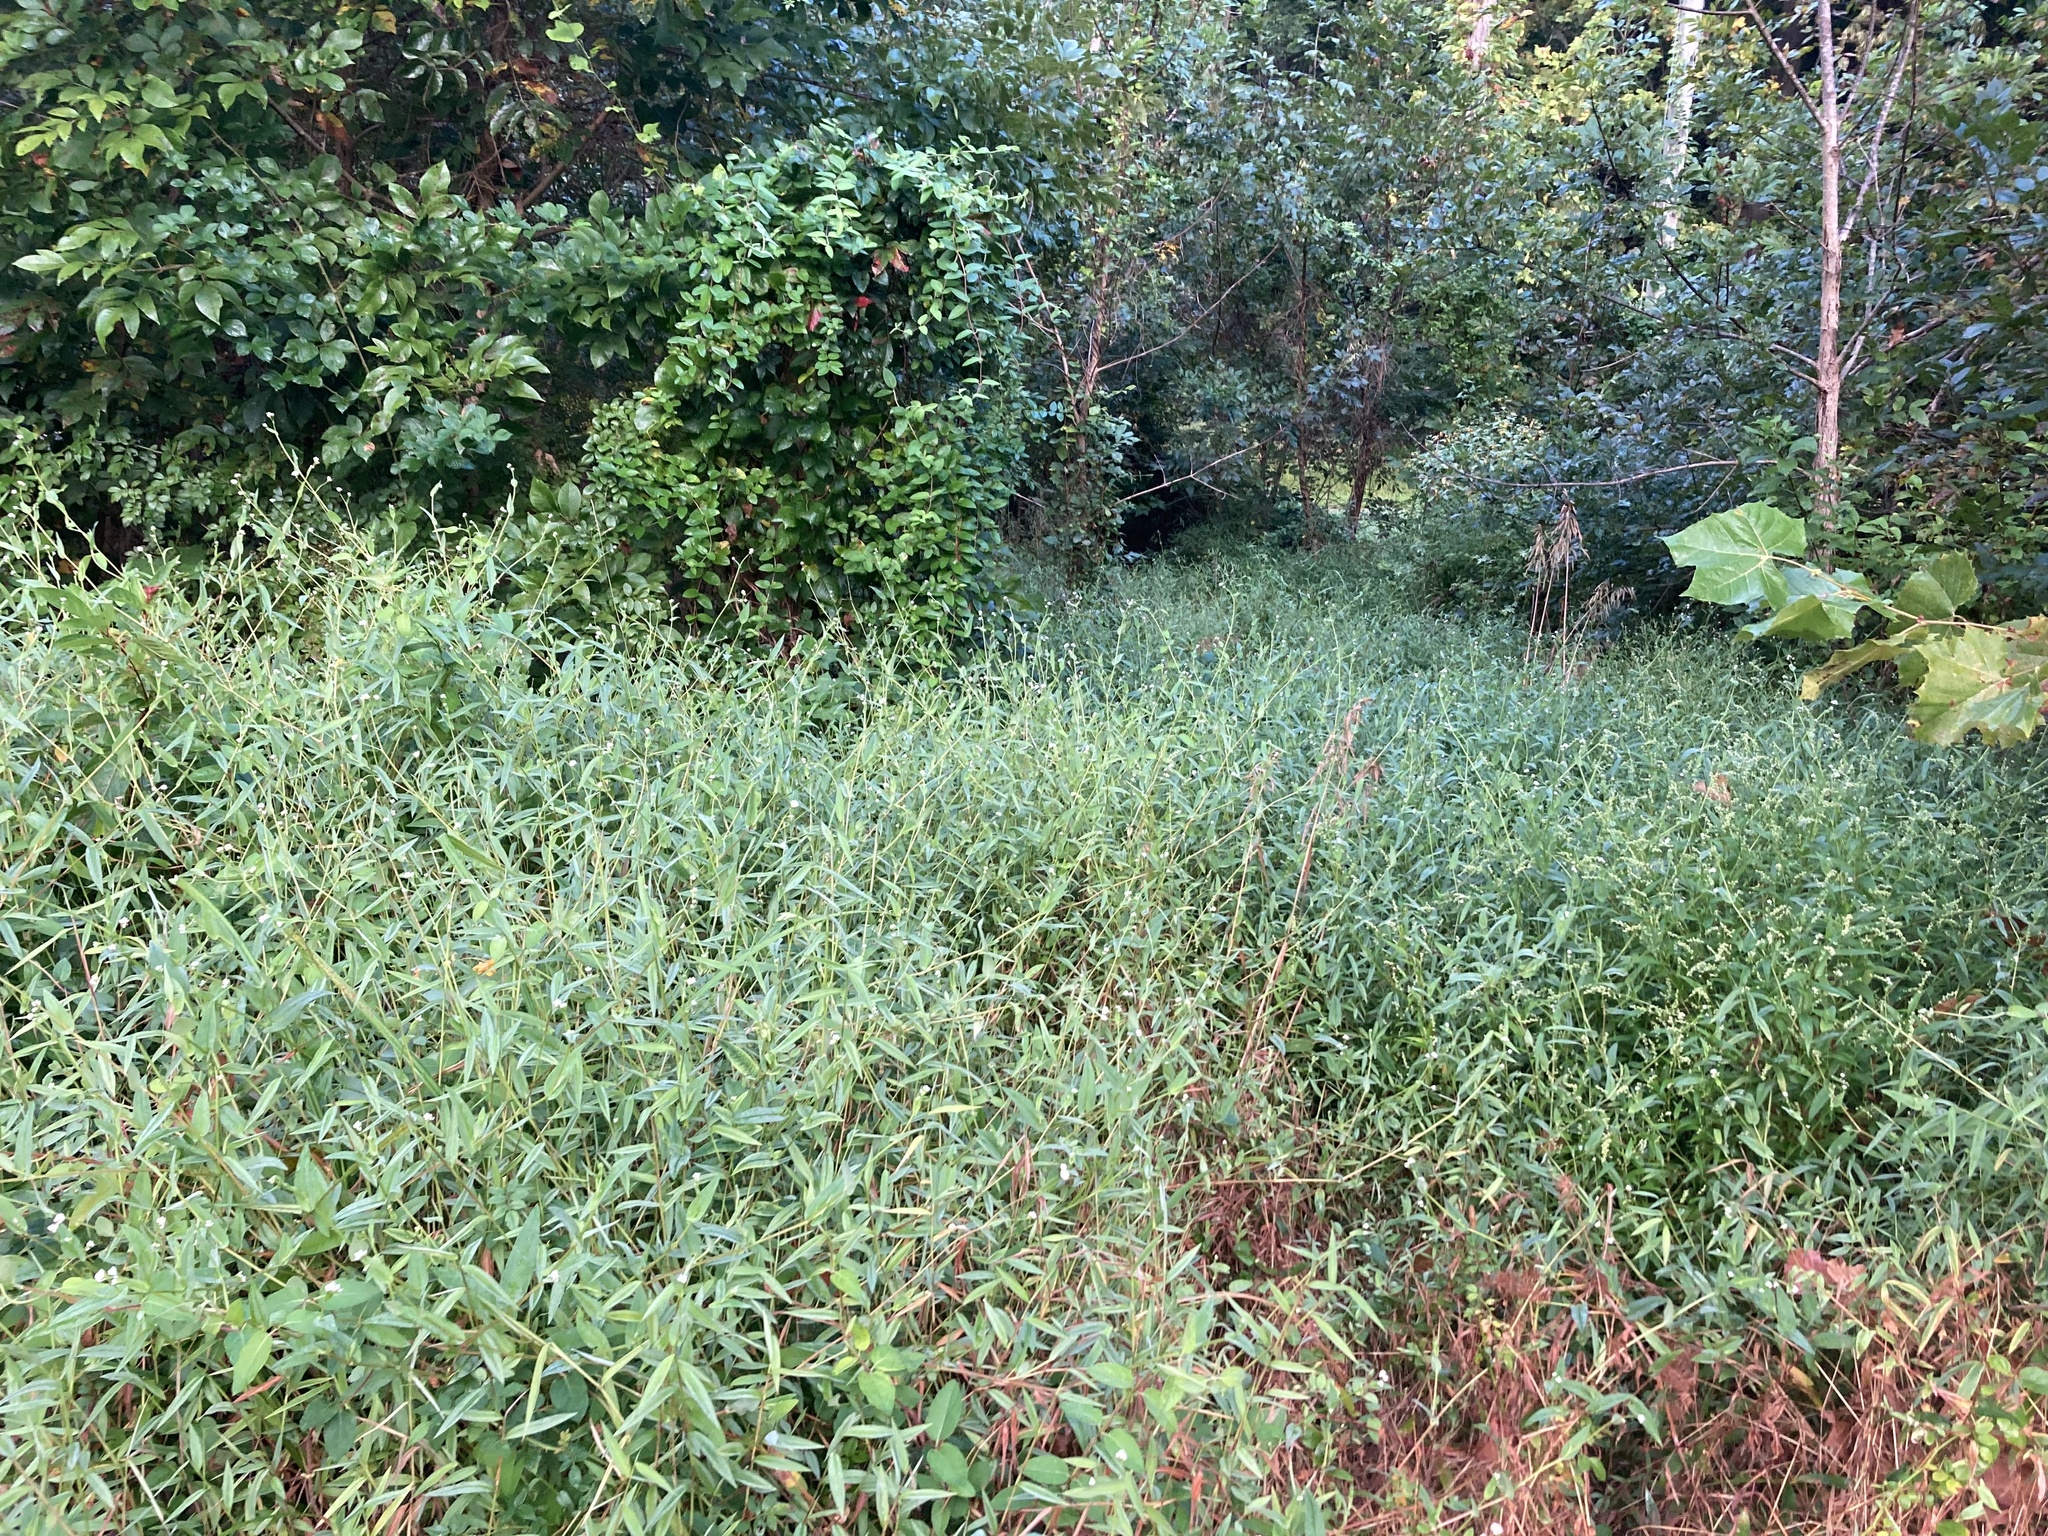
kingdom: Plantae
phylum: Tracheophyta
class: Magnoliopsida
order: Caryophyllales
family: Polygonaceae
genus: Persicaria
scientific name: Persicaria sagittata
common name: American tearthumb
